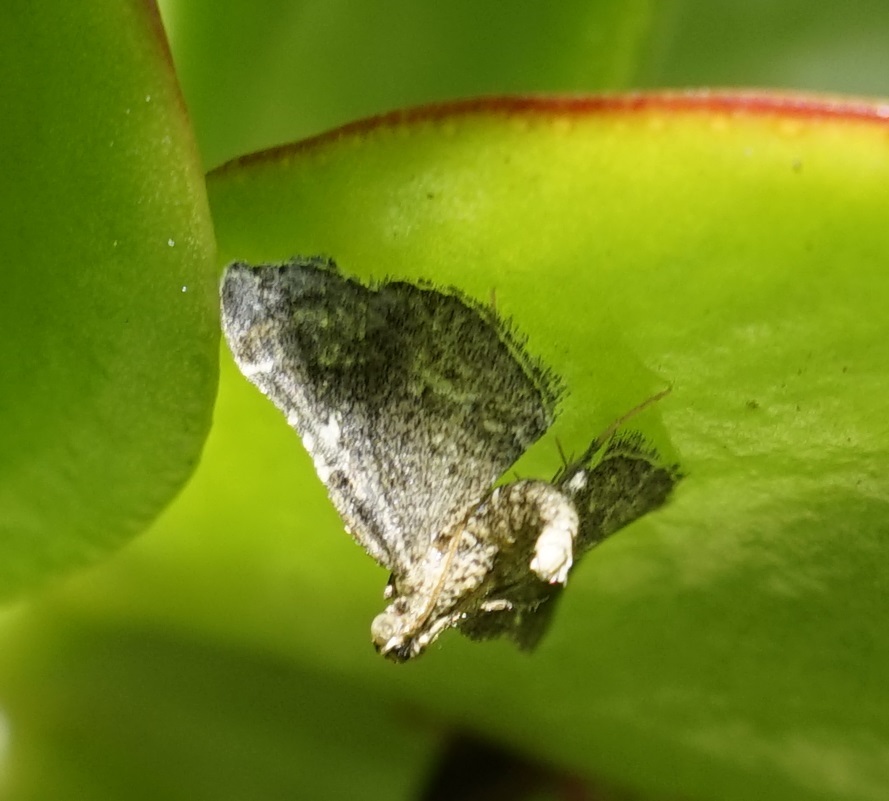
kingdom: Animalia
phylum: Arthropoda
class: Insecta
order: Lepidoptera
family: Pyralidae
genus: Scenedra
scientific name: Scenedra decoratalis
